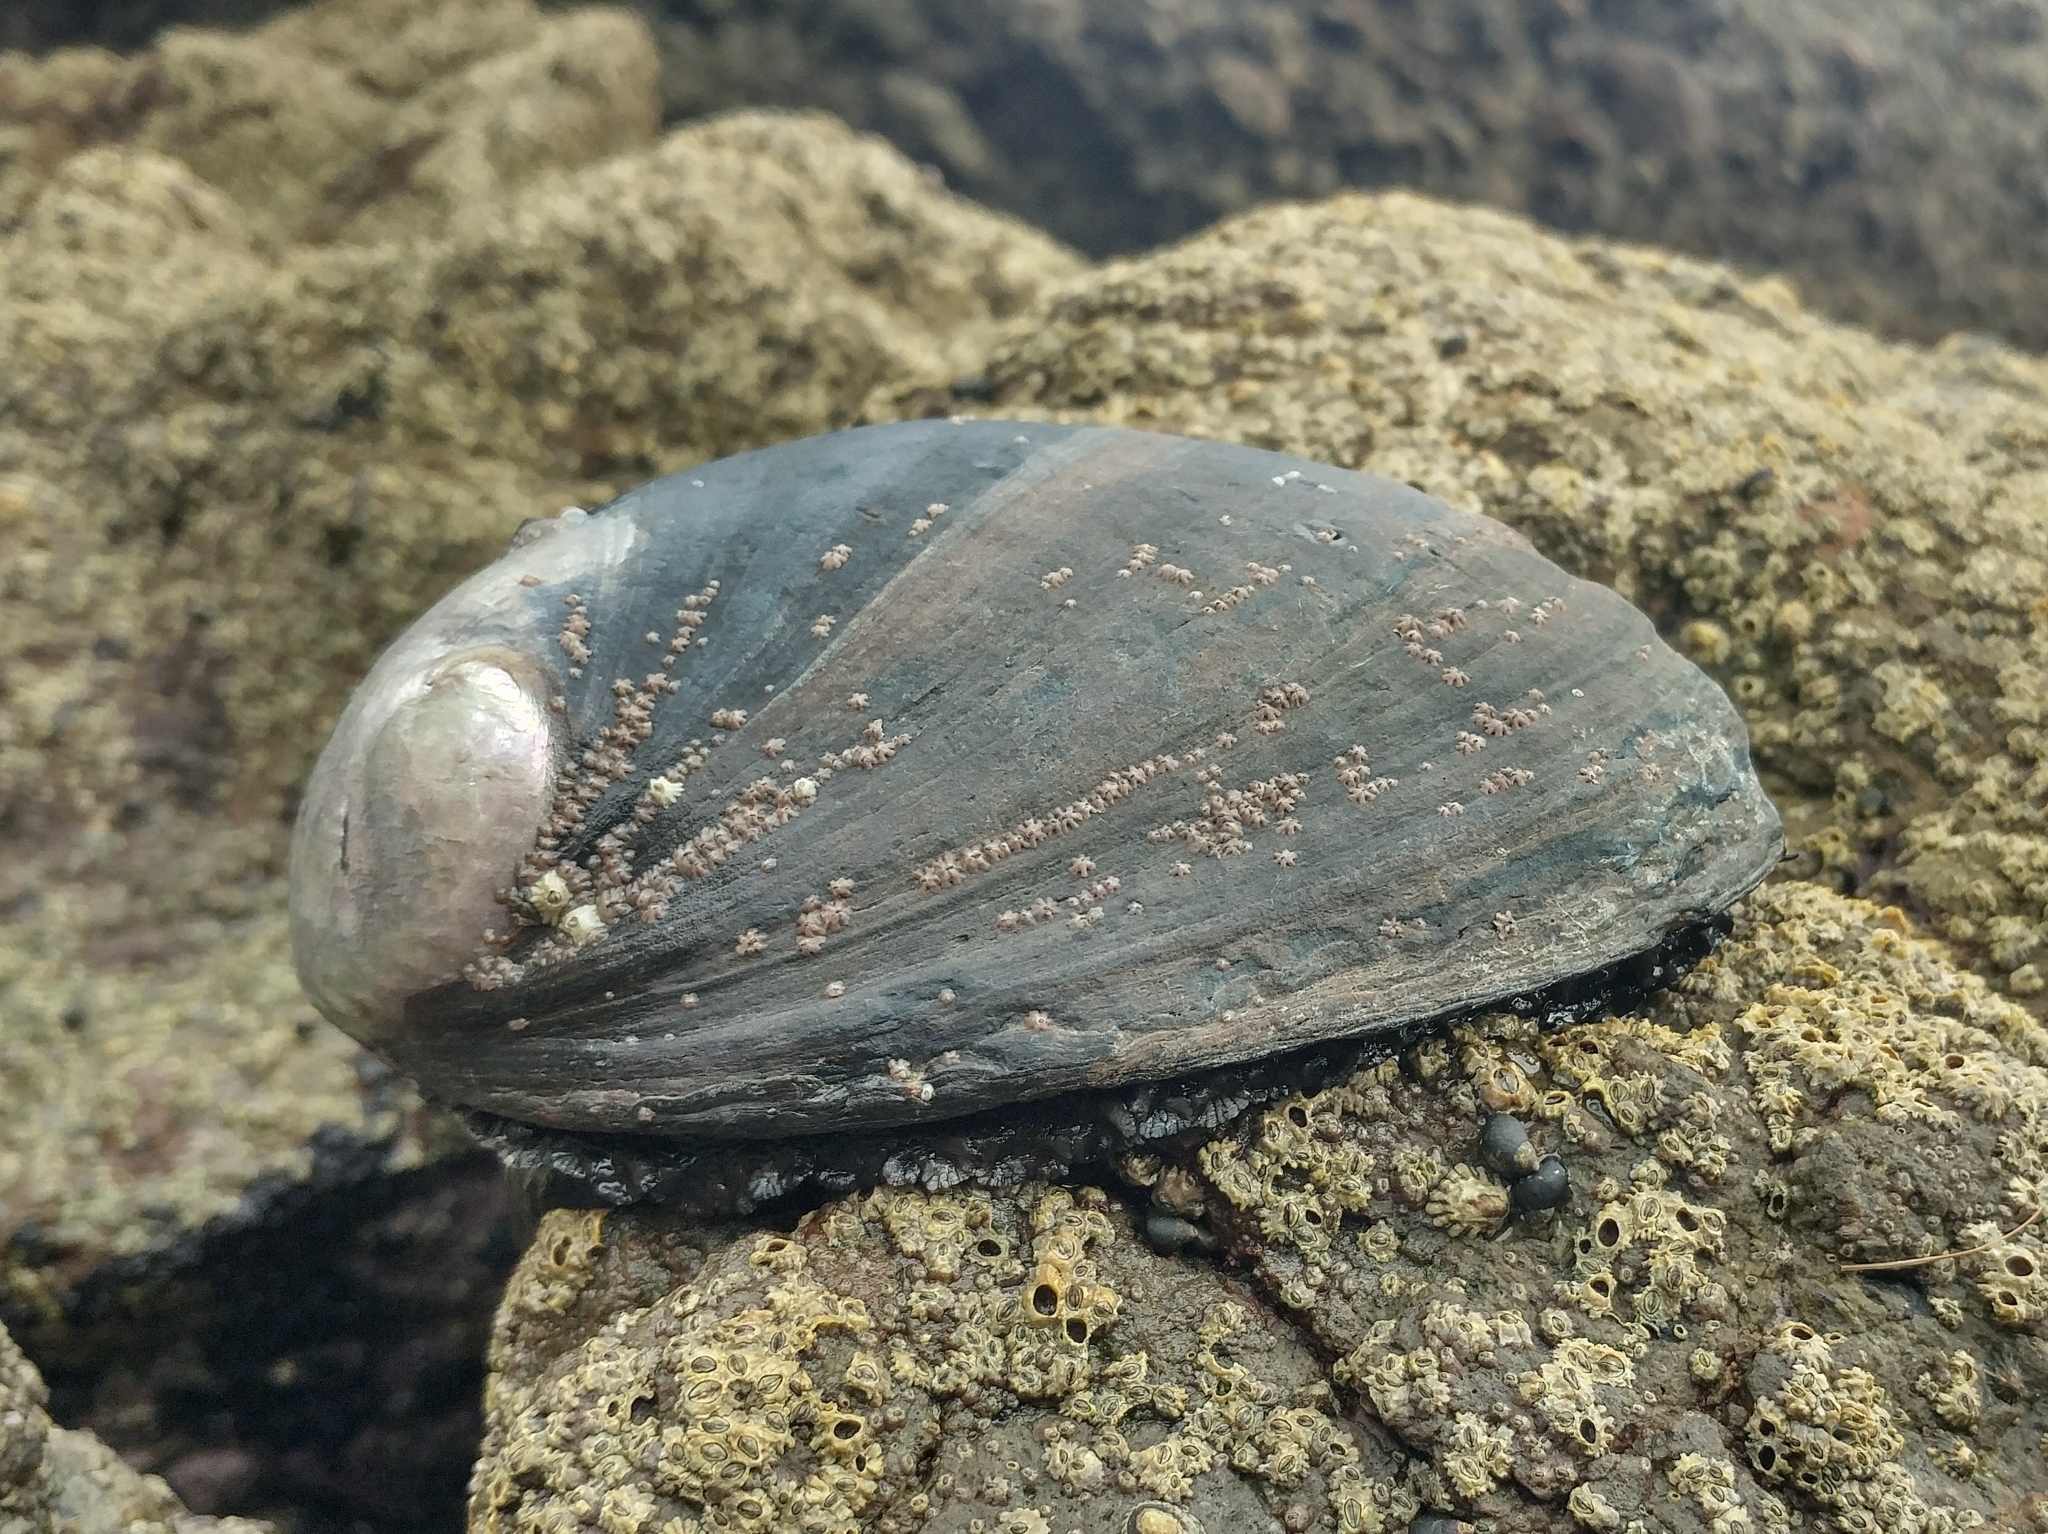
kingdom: Animalia
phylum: Mollusca
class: Gastropoda
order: Lepetellida
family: Haliotidae
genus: Haliotis
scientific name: Haliotis cracherodii
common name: Black abalone
